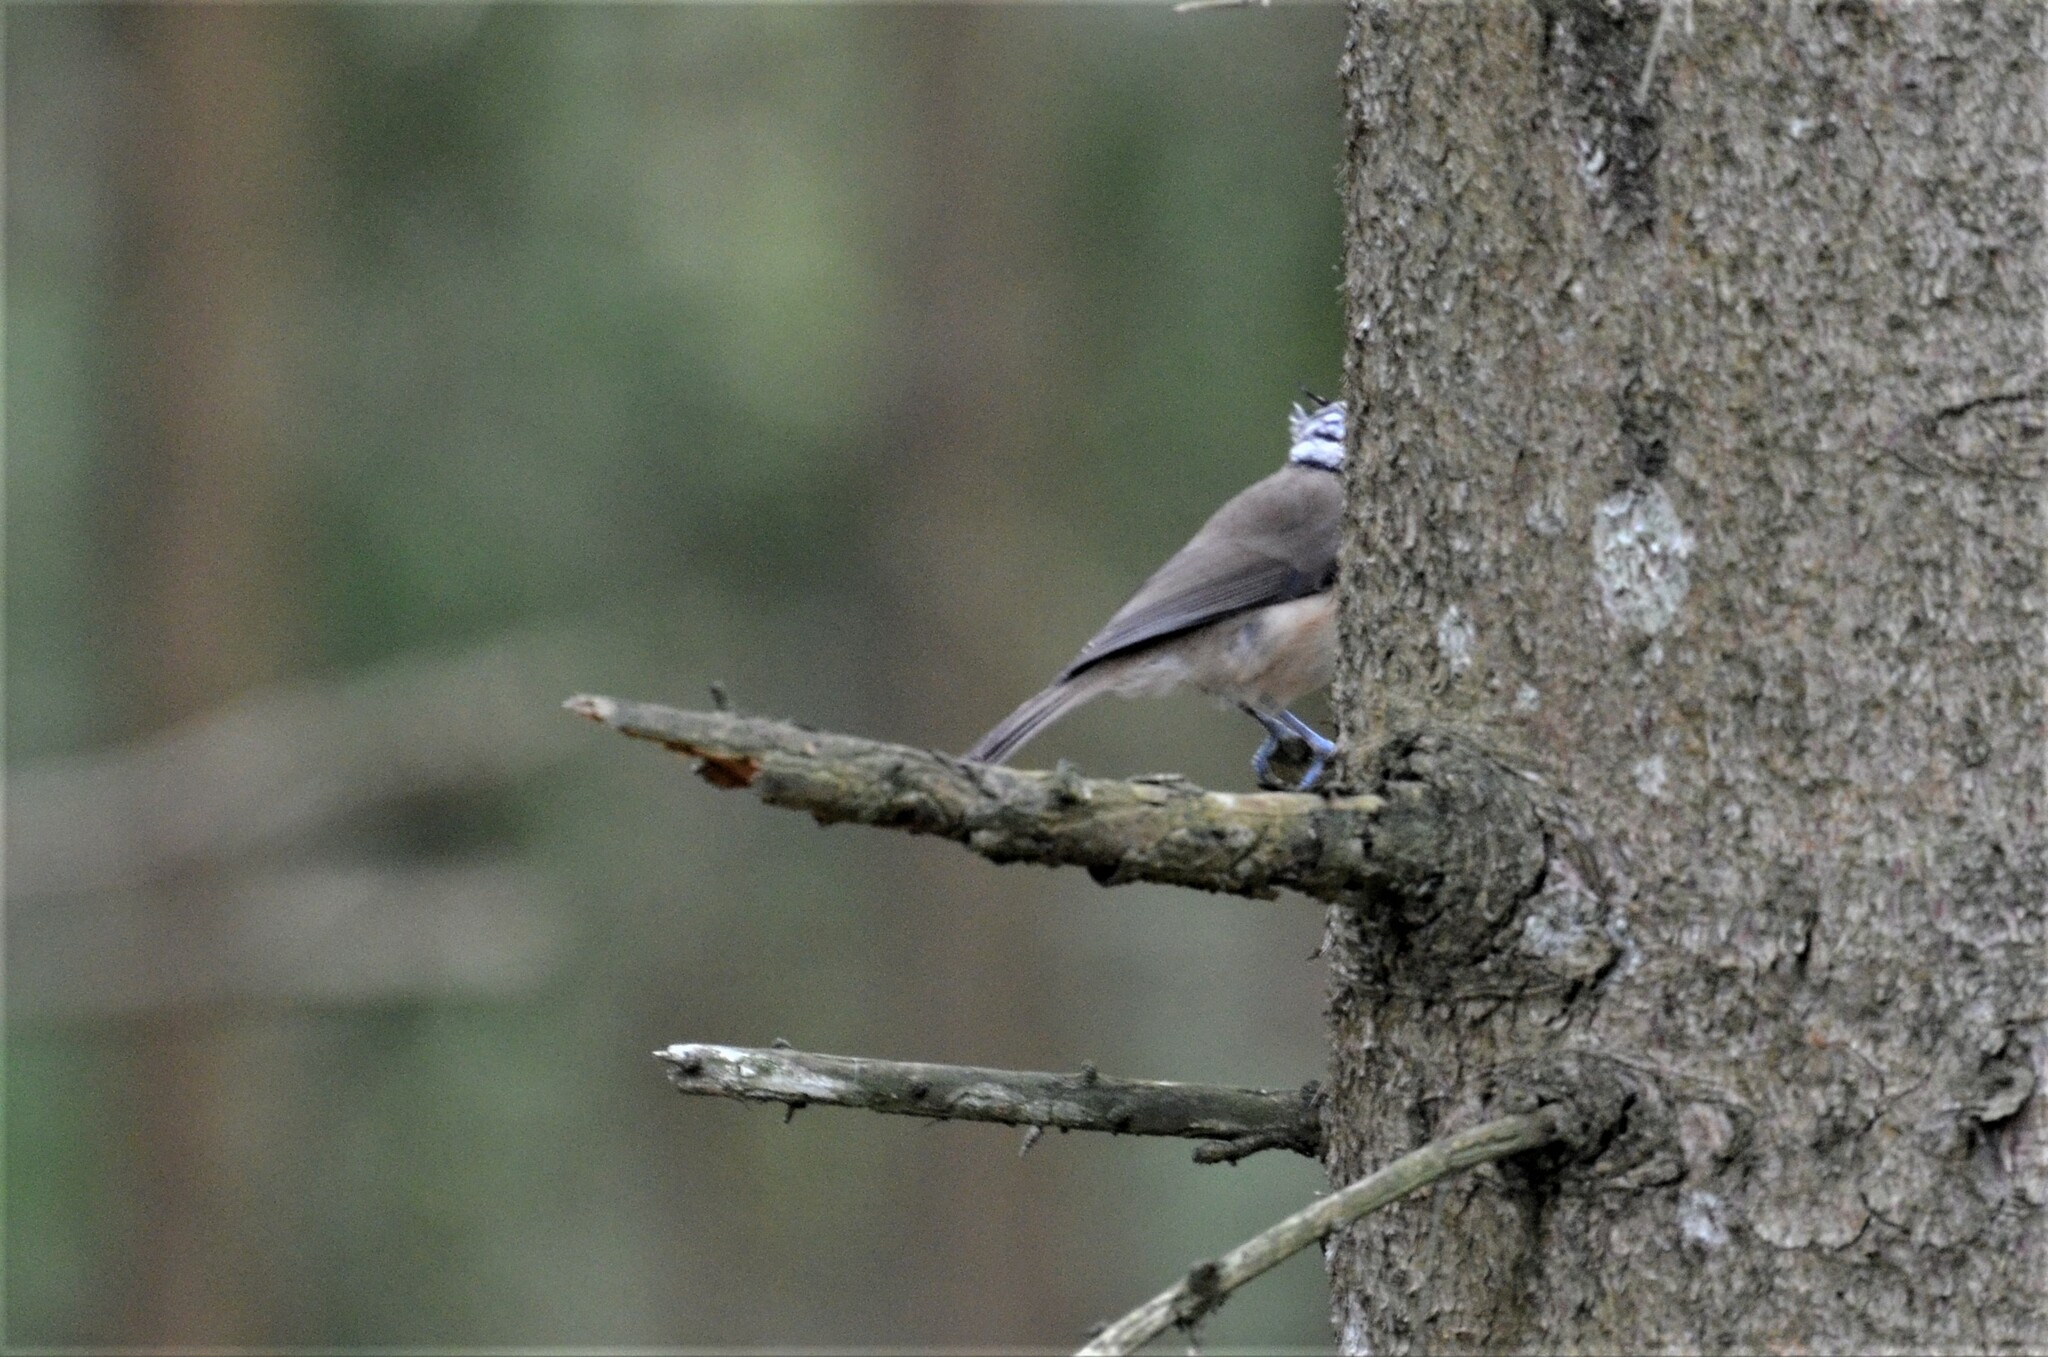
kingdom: Animalia
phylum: Chordata
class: Aves
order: Passeriformes
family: Paridae
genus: Lophophanes
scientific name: Lophophanes cristatus
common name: European crested tit
